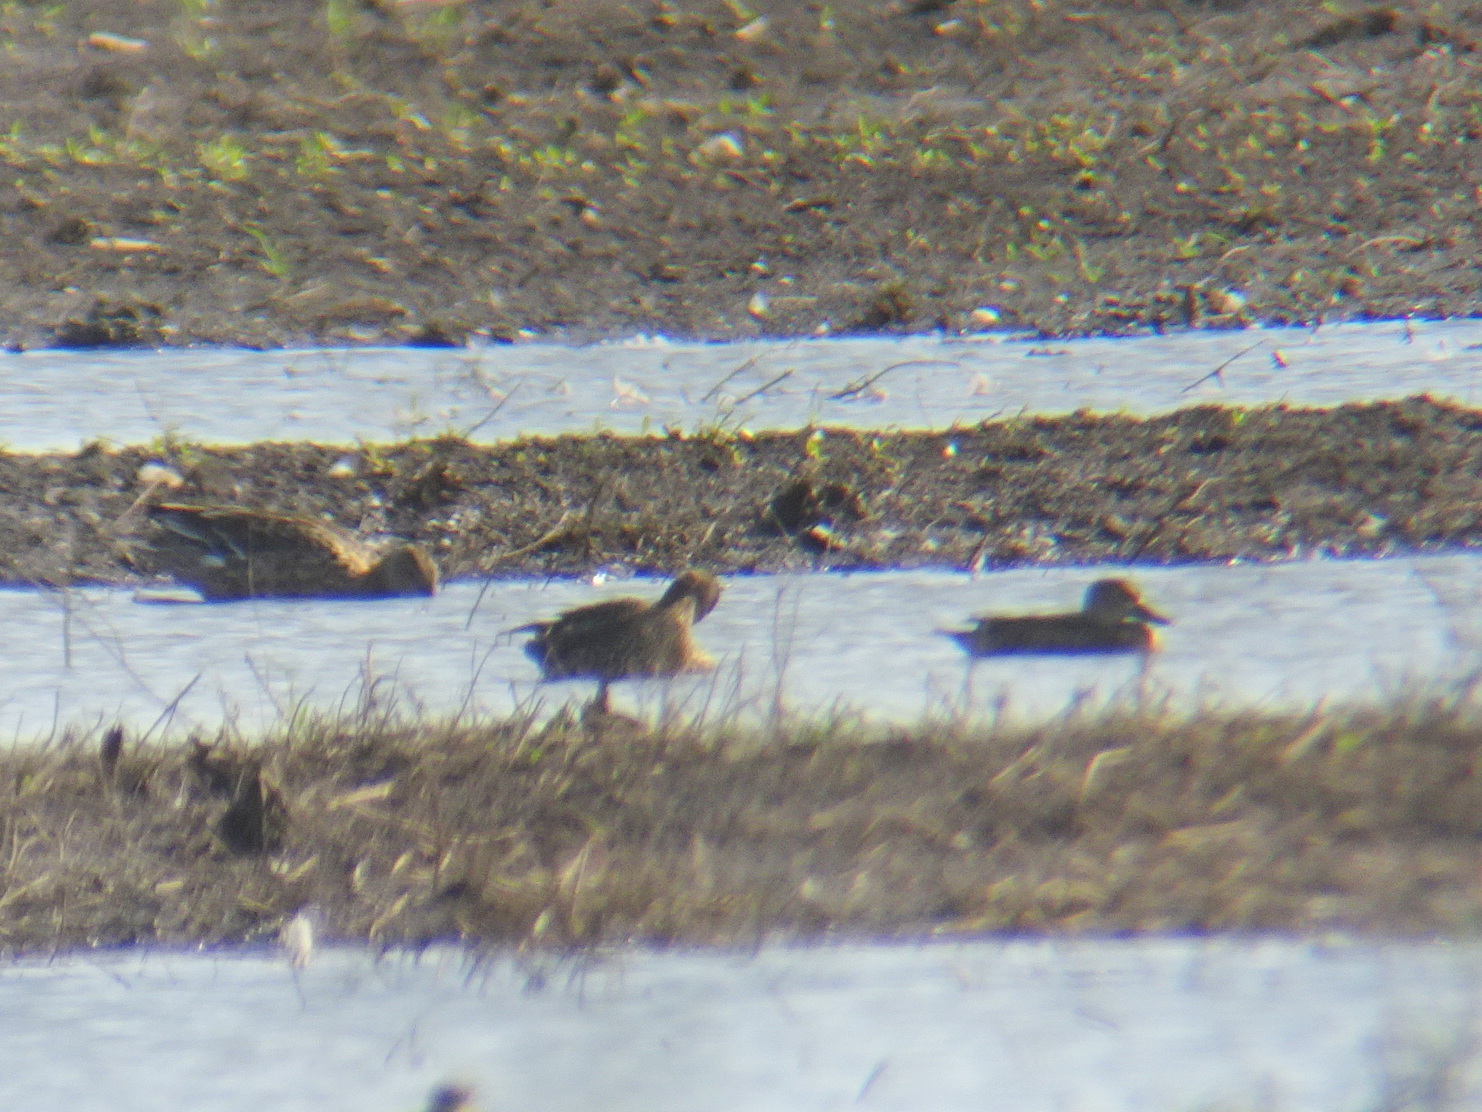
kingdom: Animalia
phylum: Chordata
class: Aves
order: Anseriformes
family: Anatidae
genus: Spatula
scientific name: Spatula clypeata
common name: Northern shoveler
